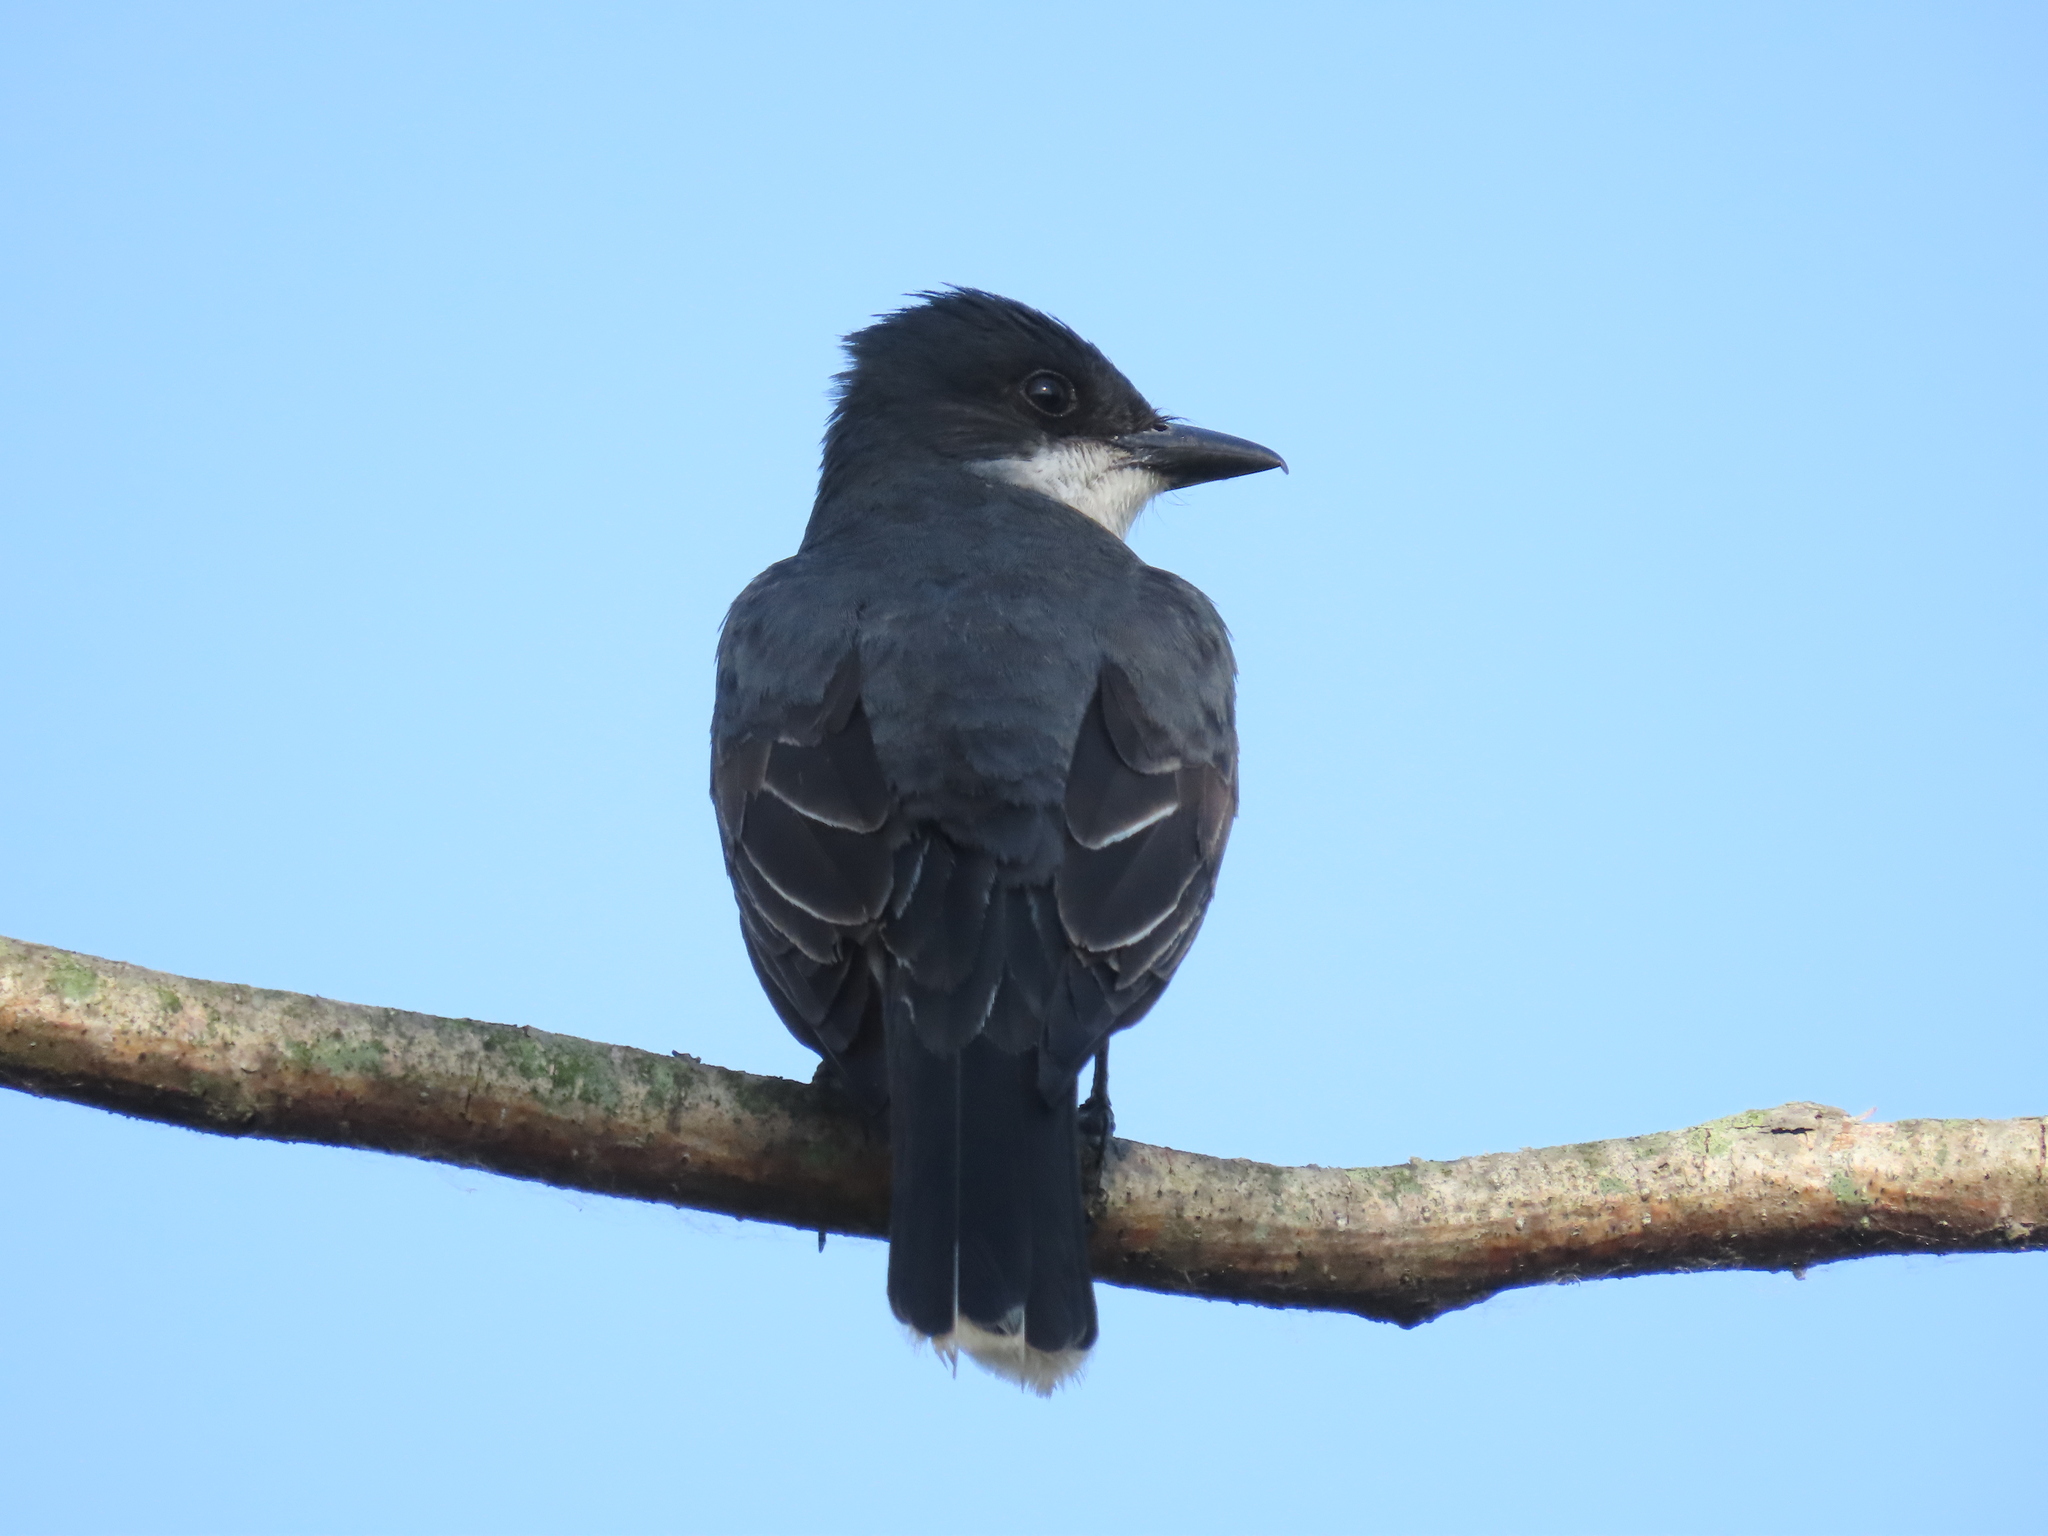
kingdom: Animalia
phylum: Chordata
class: Aves
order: Passeriformes
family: Tyrannidae
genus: Tyrannus
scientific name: Tyrannus tyrannus
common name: Eastern kingbird
